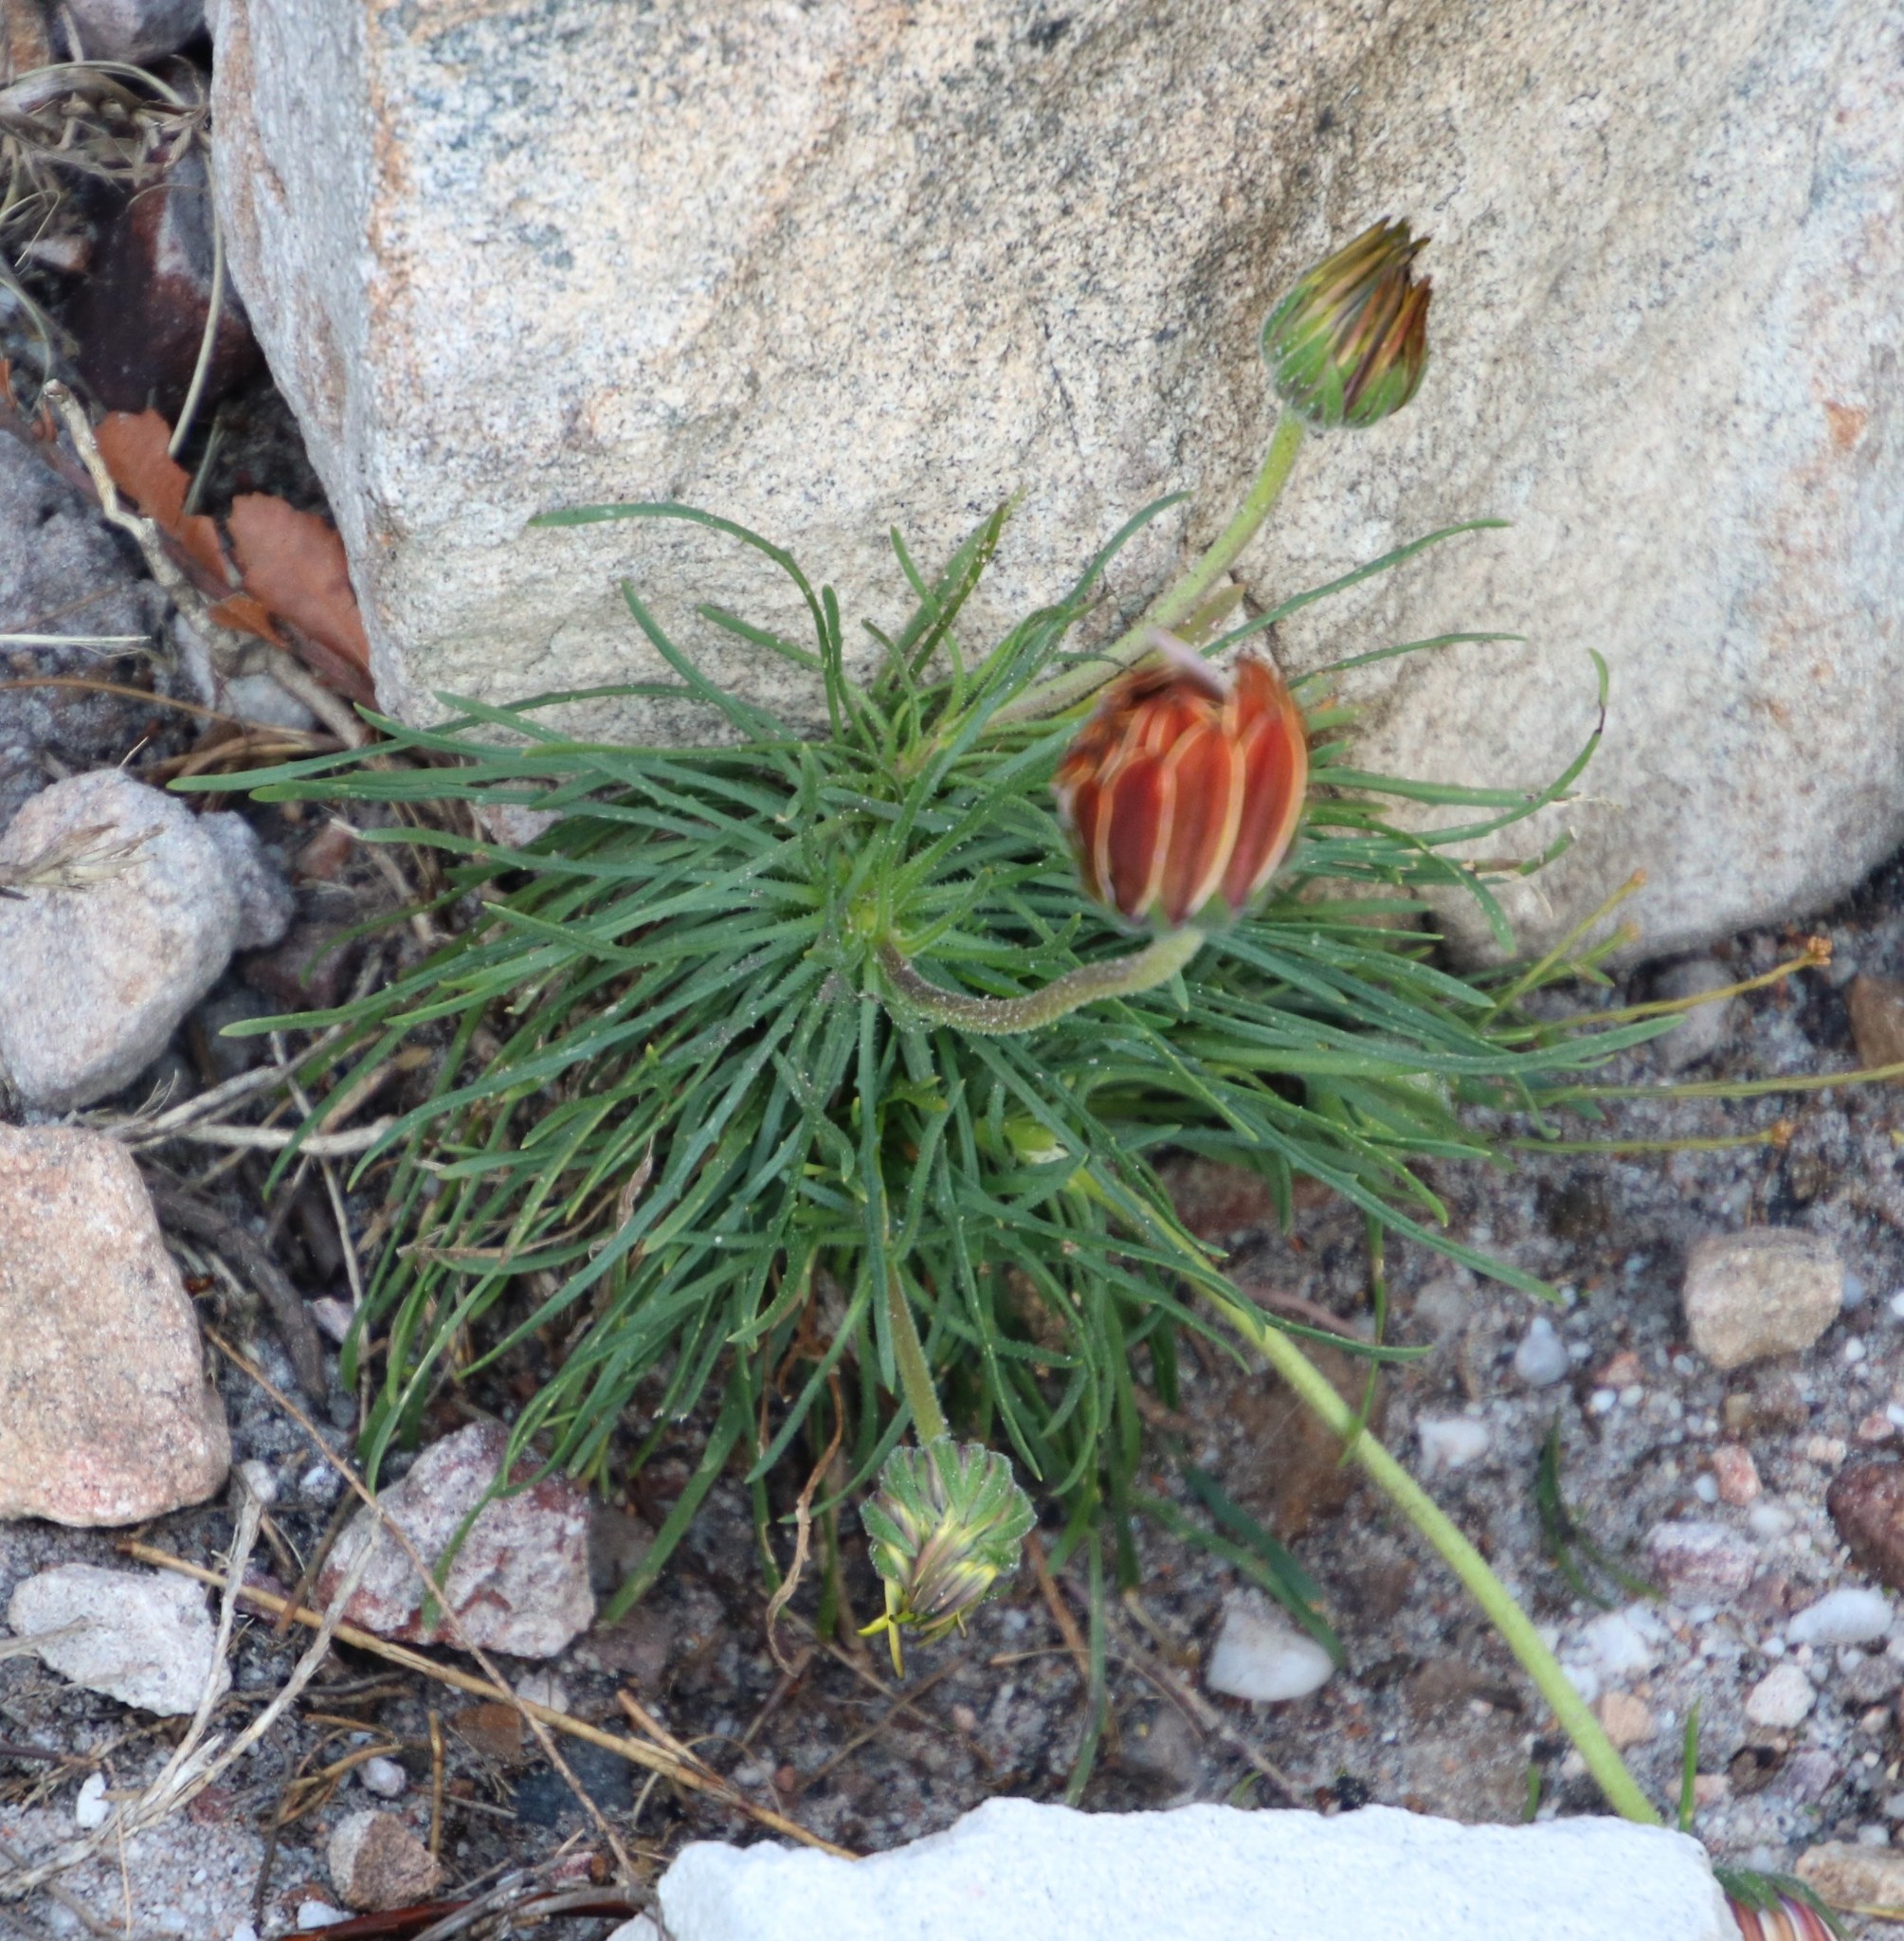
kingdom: Plantae
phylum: Tracheophyta
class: Magnoliopsida
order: Asterales
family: Asteraceae
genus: Dimorphotheca
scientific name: Dimorphotheca nudicaulis
